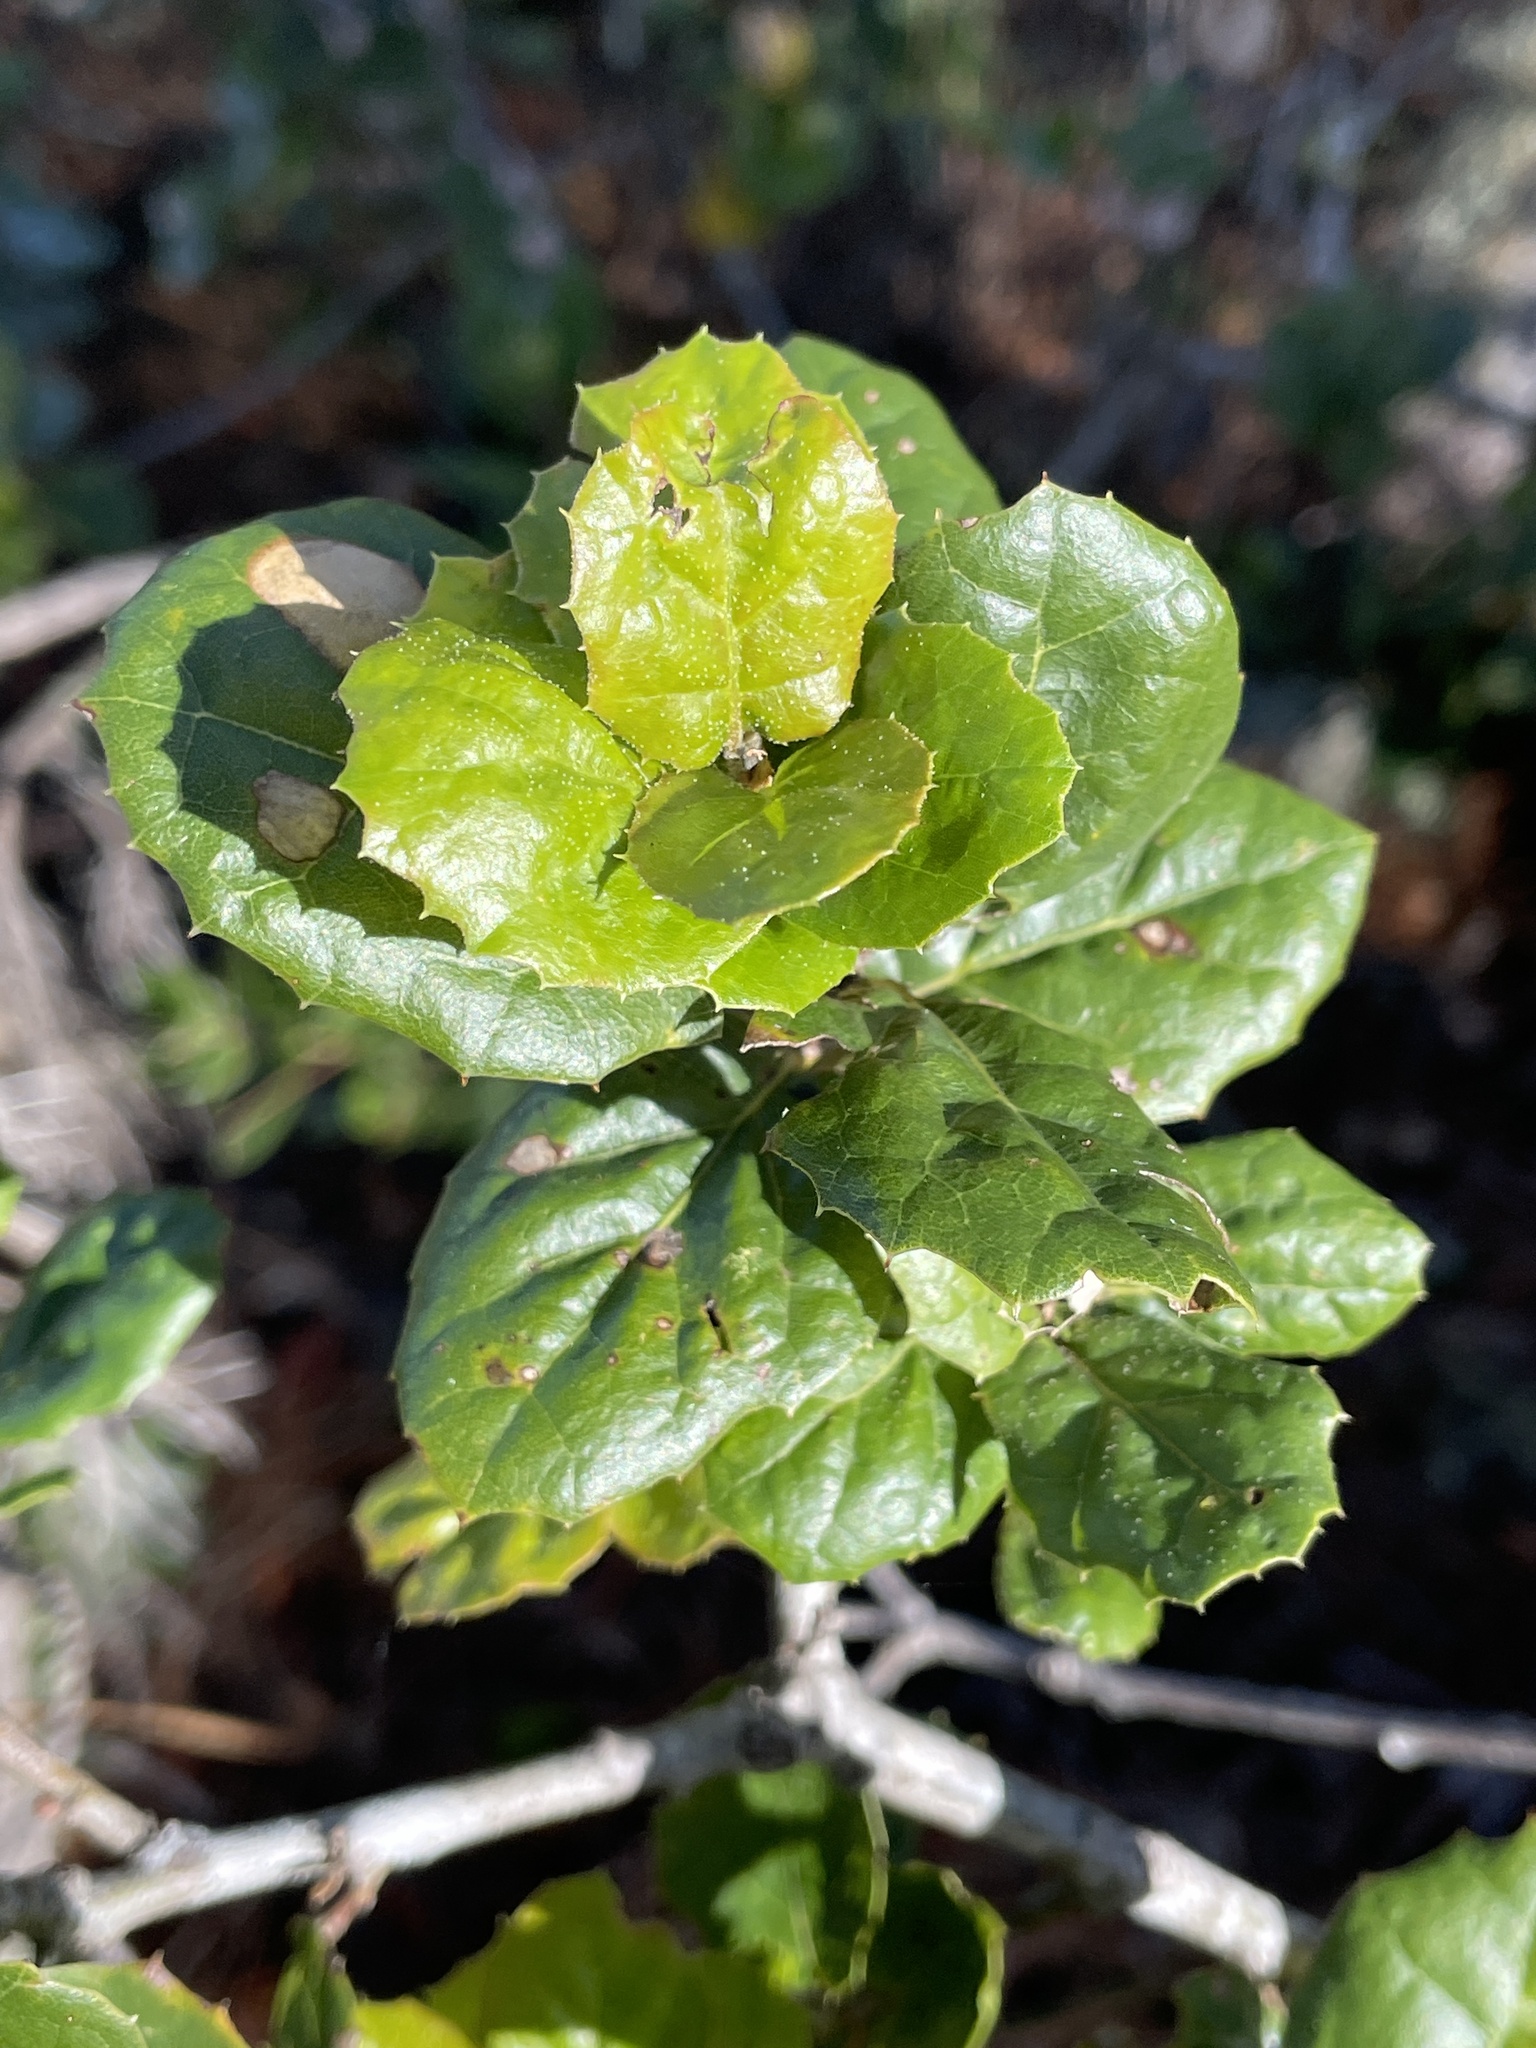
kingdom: Plantae
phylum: Tracheophyta
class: Magnoliopsida
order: Fagales
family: Fagaceae
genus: Quercus
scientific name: Quercus agrifolia
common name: California live oak
